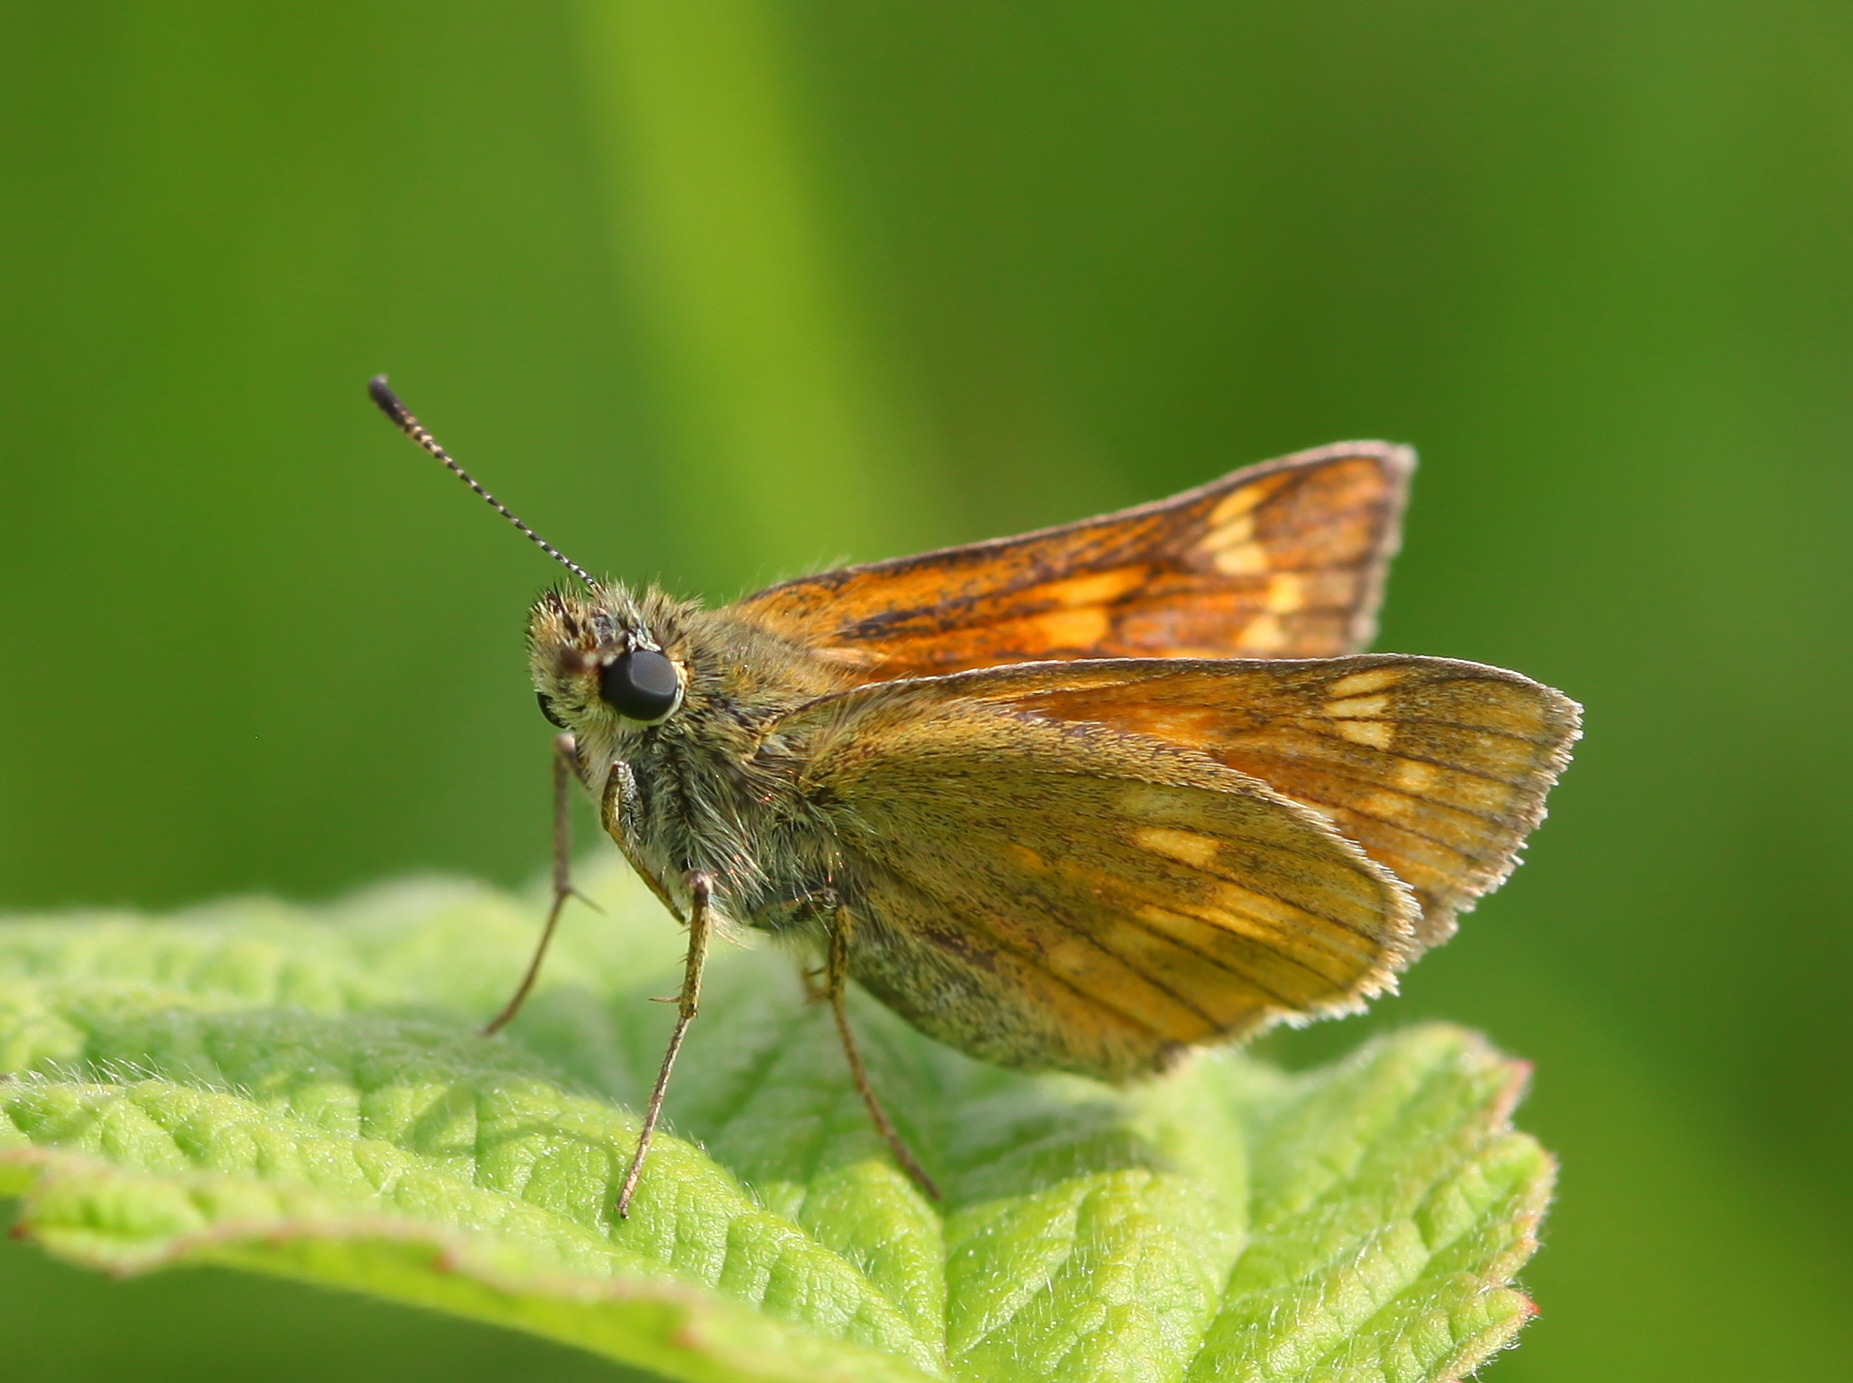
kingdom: Animalia
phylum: Arthropoda
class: Insecta
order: Lepidoptera
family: Hesperiidae
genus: Ochlodes
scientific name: Ochlodes venata
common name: Large skipper
